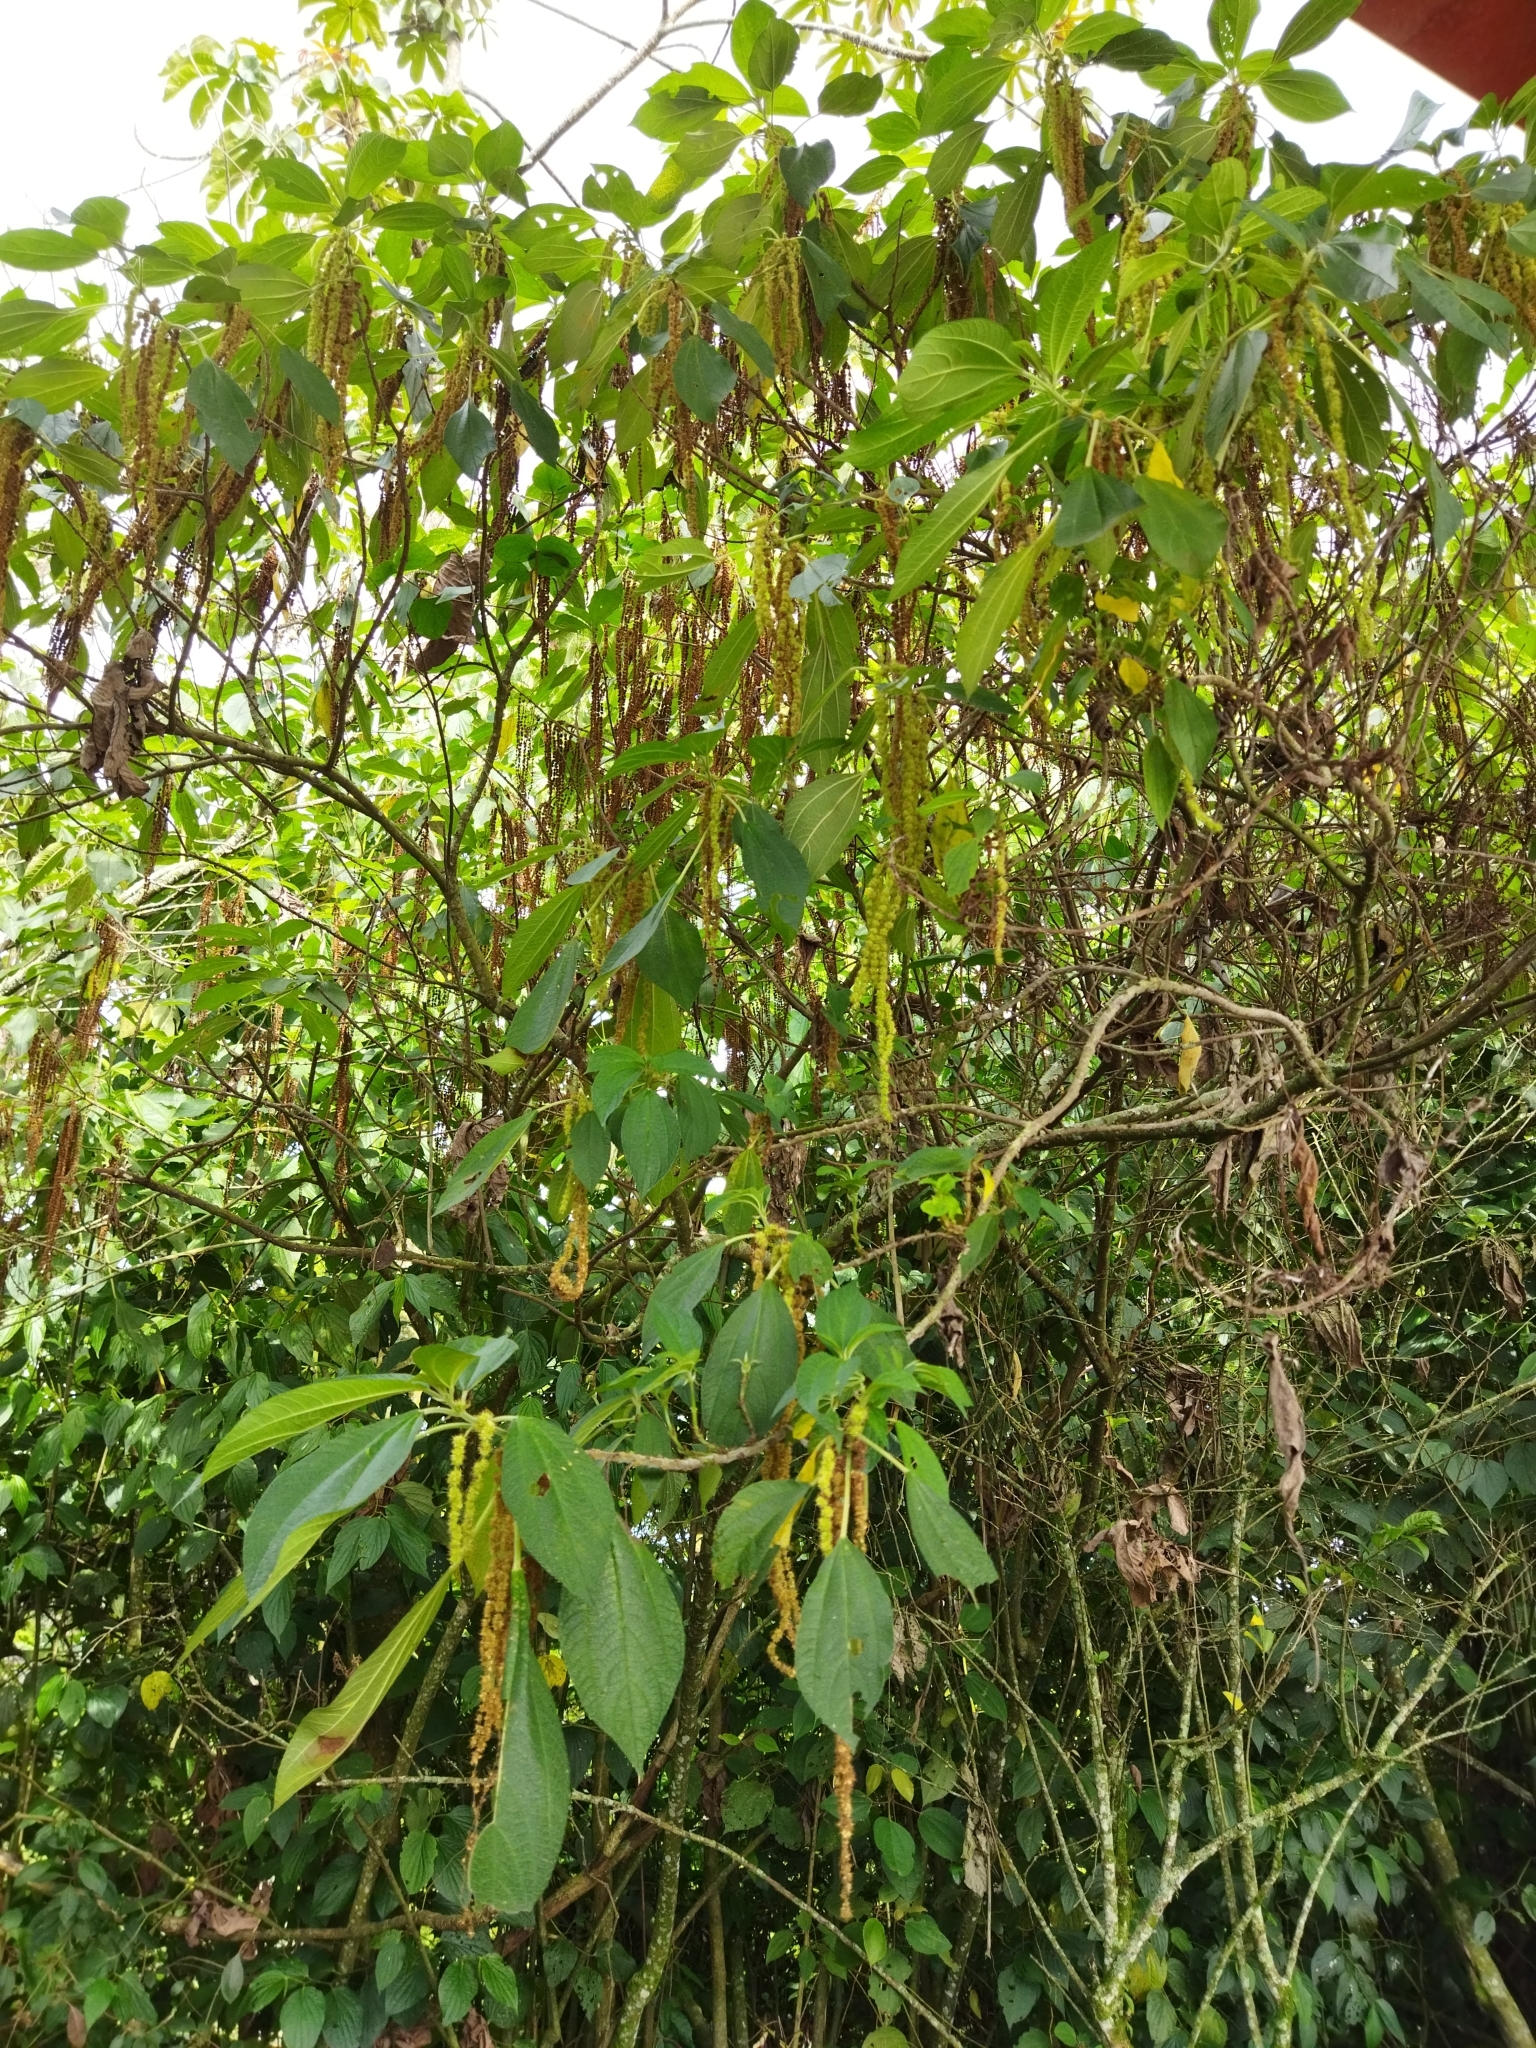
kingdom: Plantae
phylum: Tracheophyta
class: Magnoliopsida
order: Rosales
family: Urticaceae
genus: Boehmeria
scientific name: Boehmeria caudata
